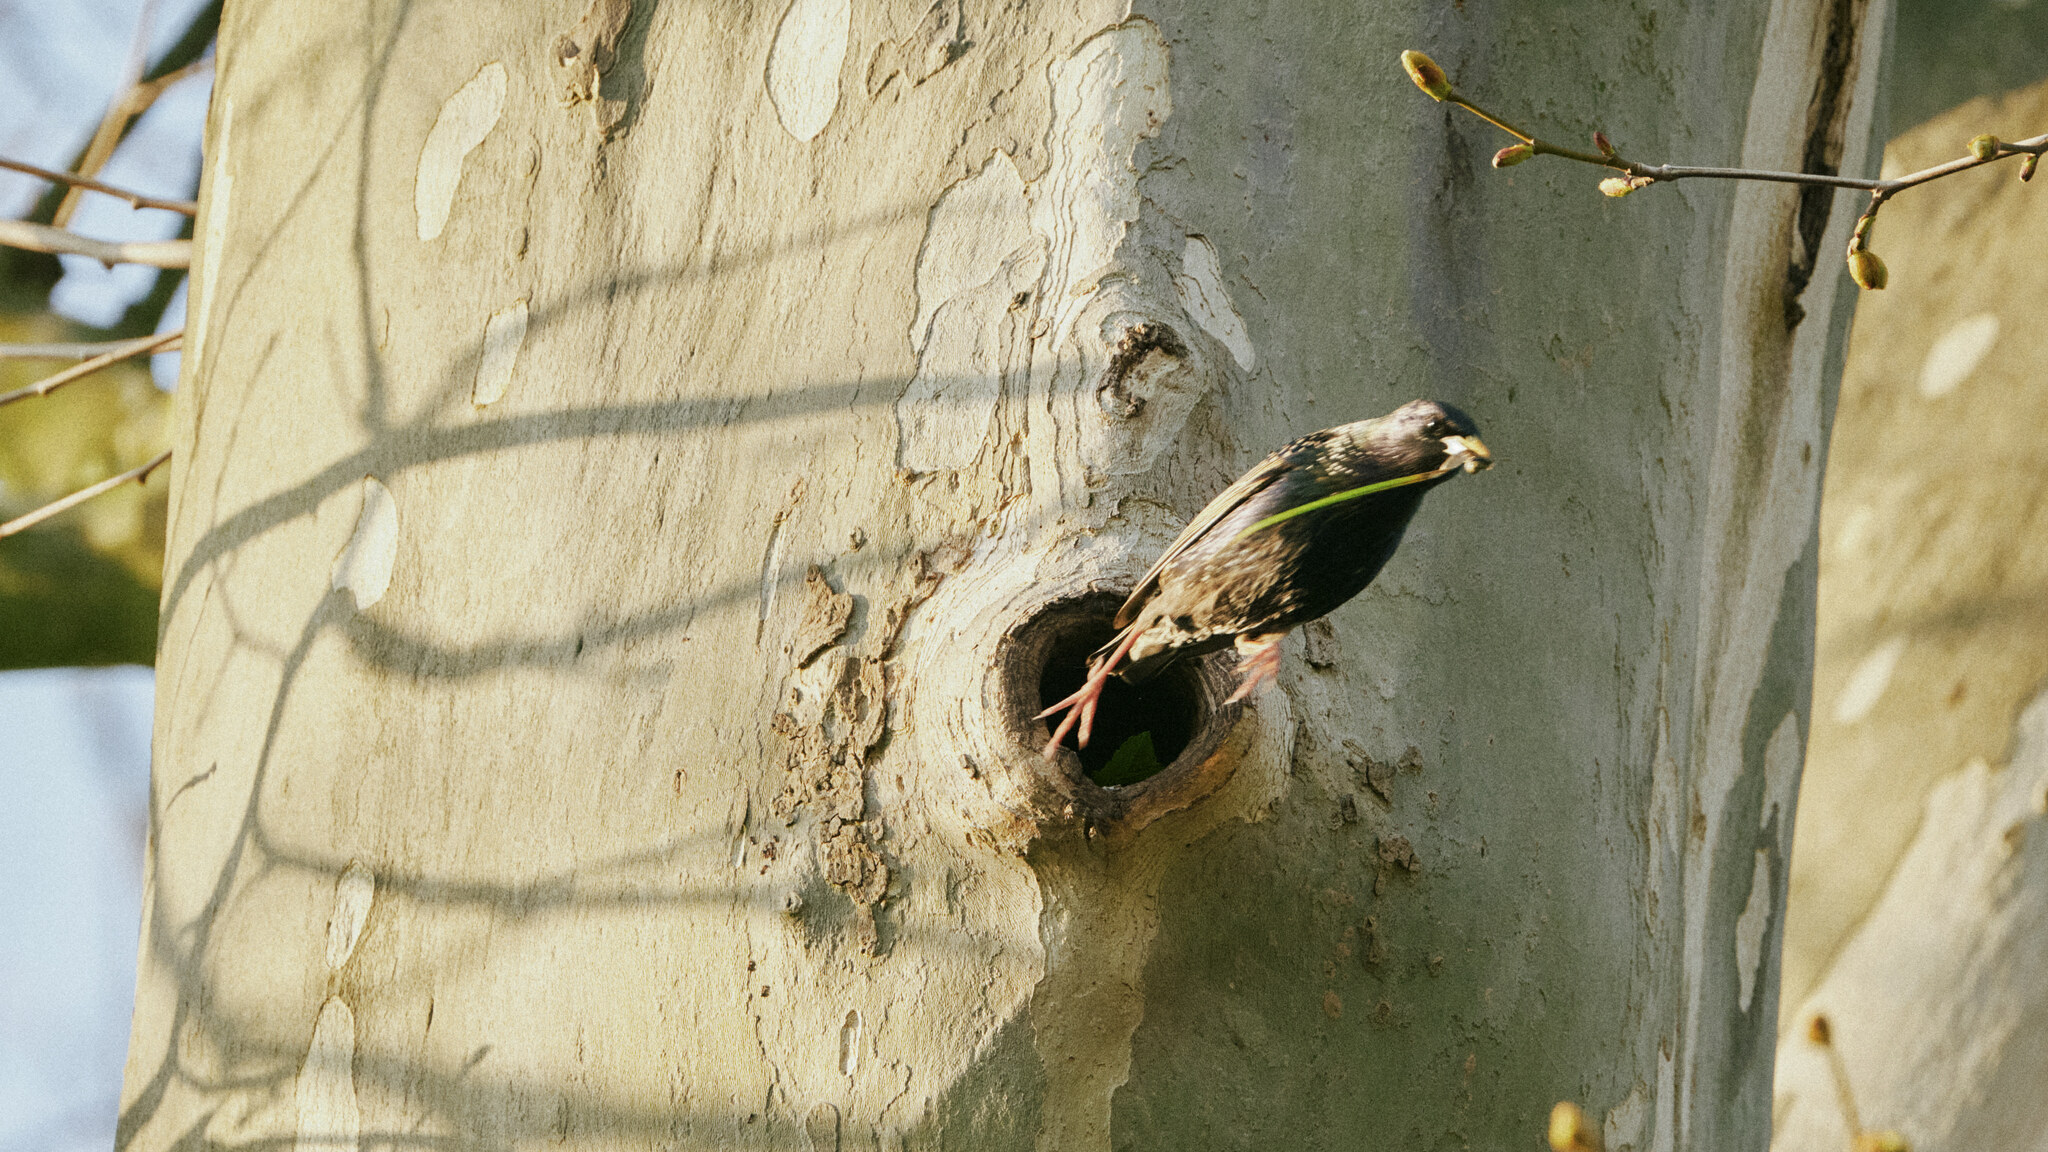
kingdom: Animalia
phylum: Chordata
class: Aves
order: Passeriformes
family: Sturnidae
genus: Sturnus
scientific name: Sturnus vulgaris
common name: Common starling
